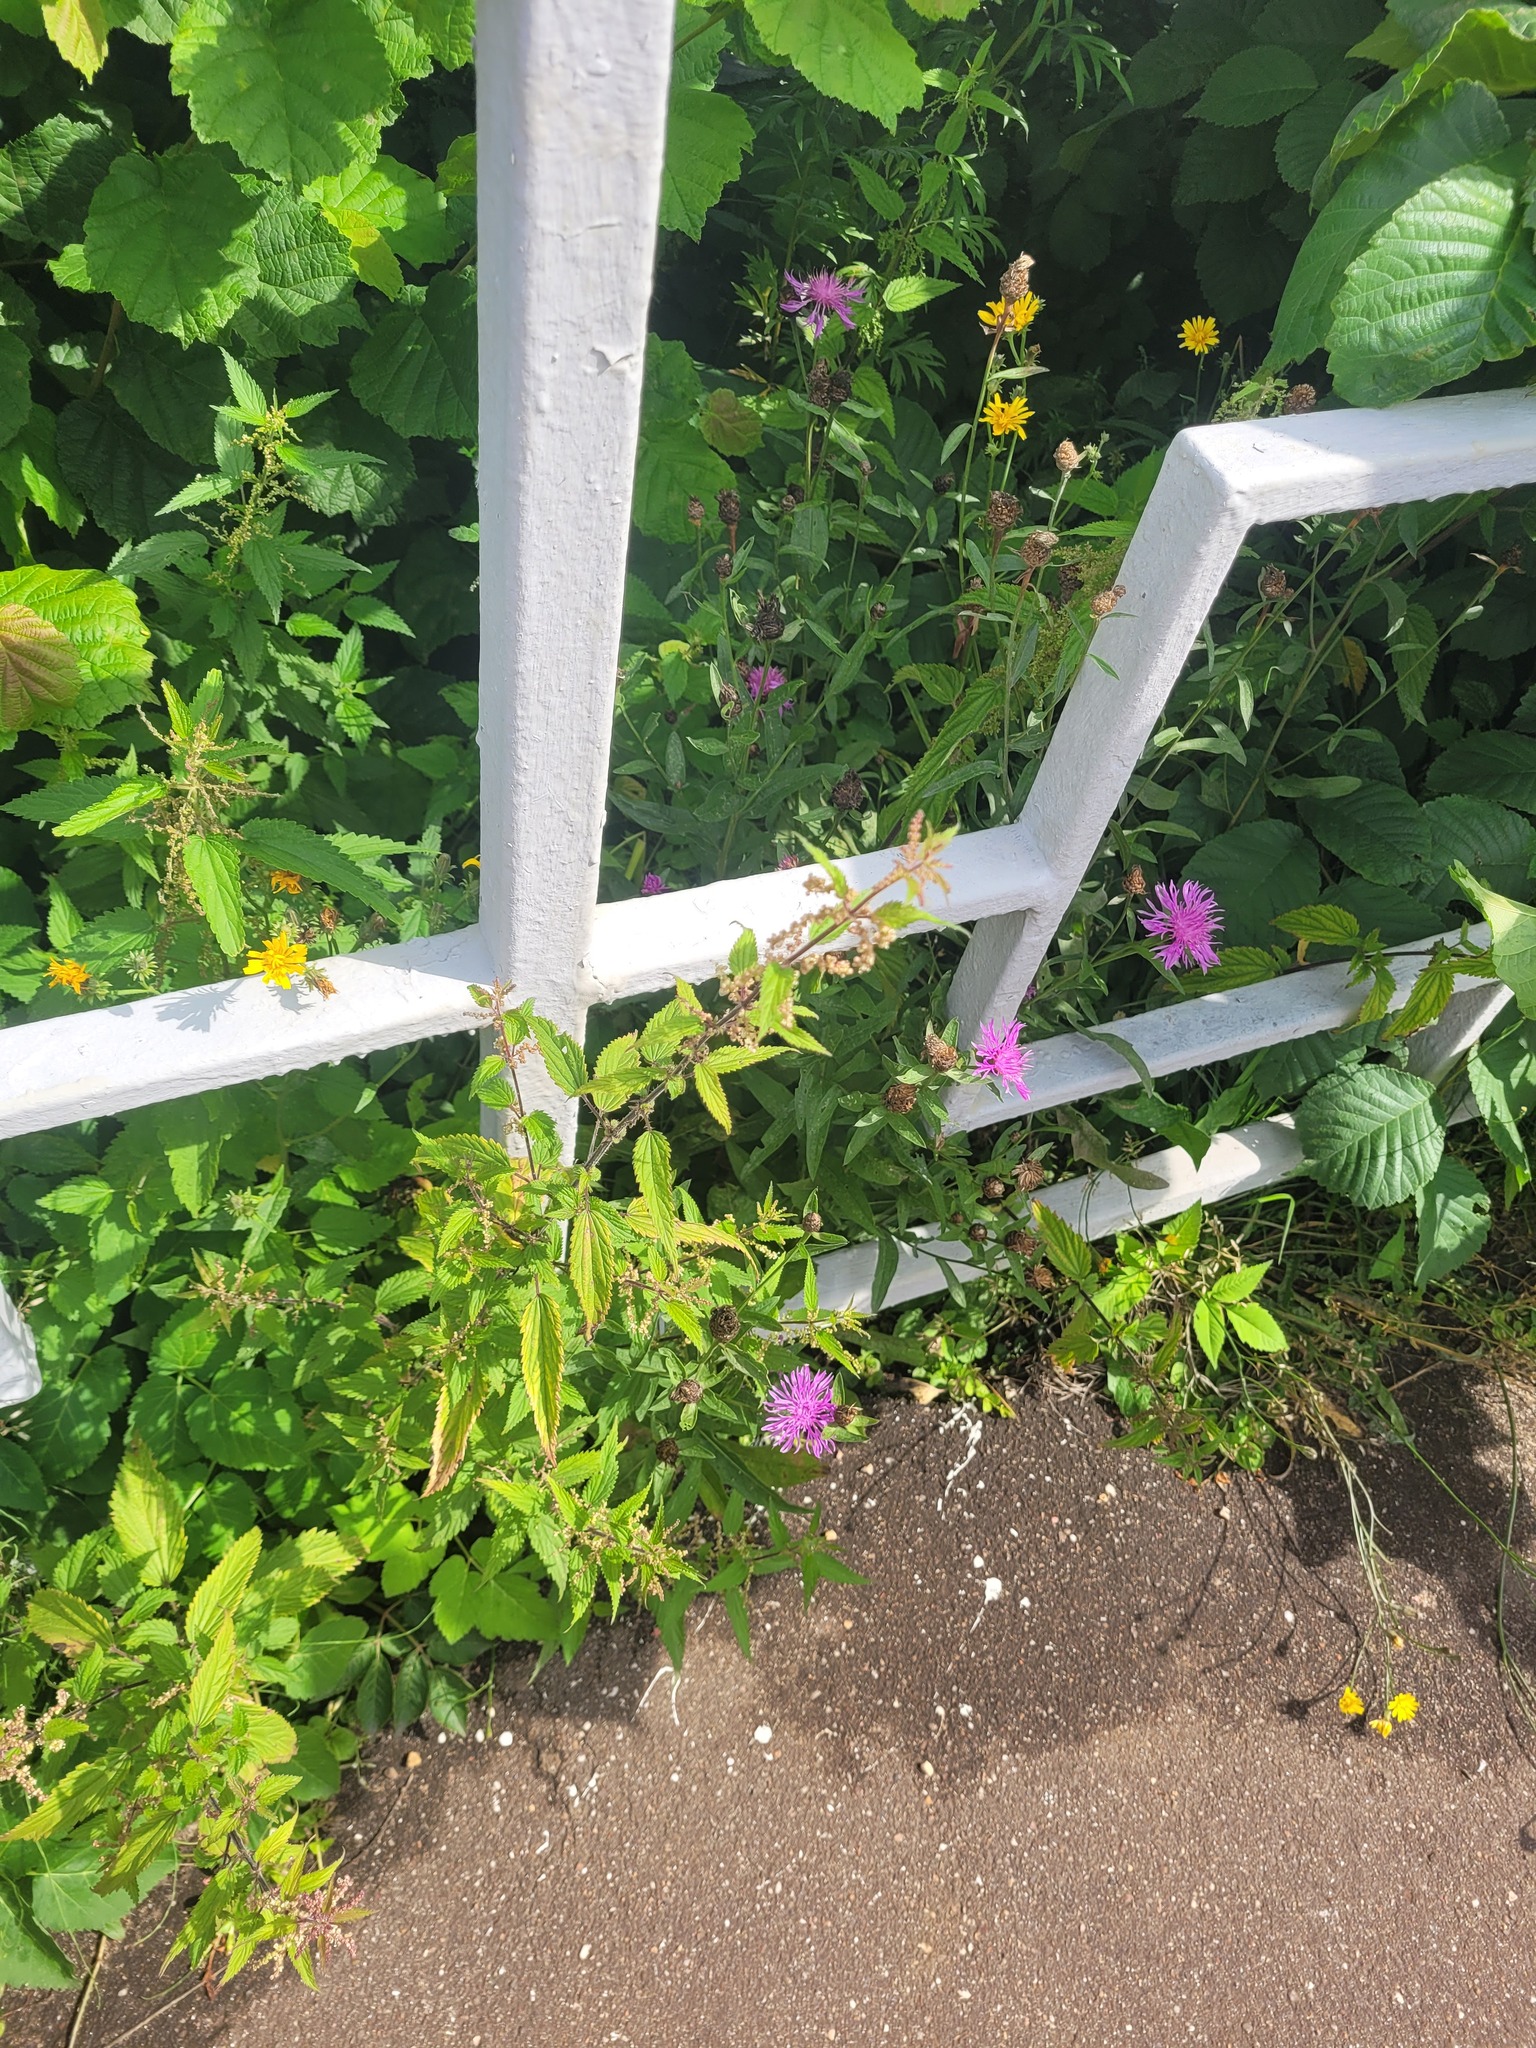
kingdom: Plantae
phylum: Tracheophyta
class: Magnoliopsida
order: Rosales
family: Urticaceae
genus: Urtica
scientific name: Urtica dioica
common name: Common nettle
